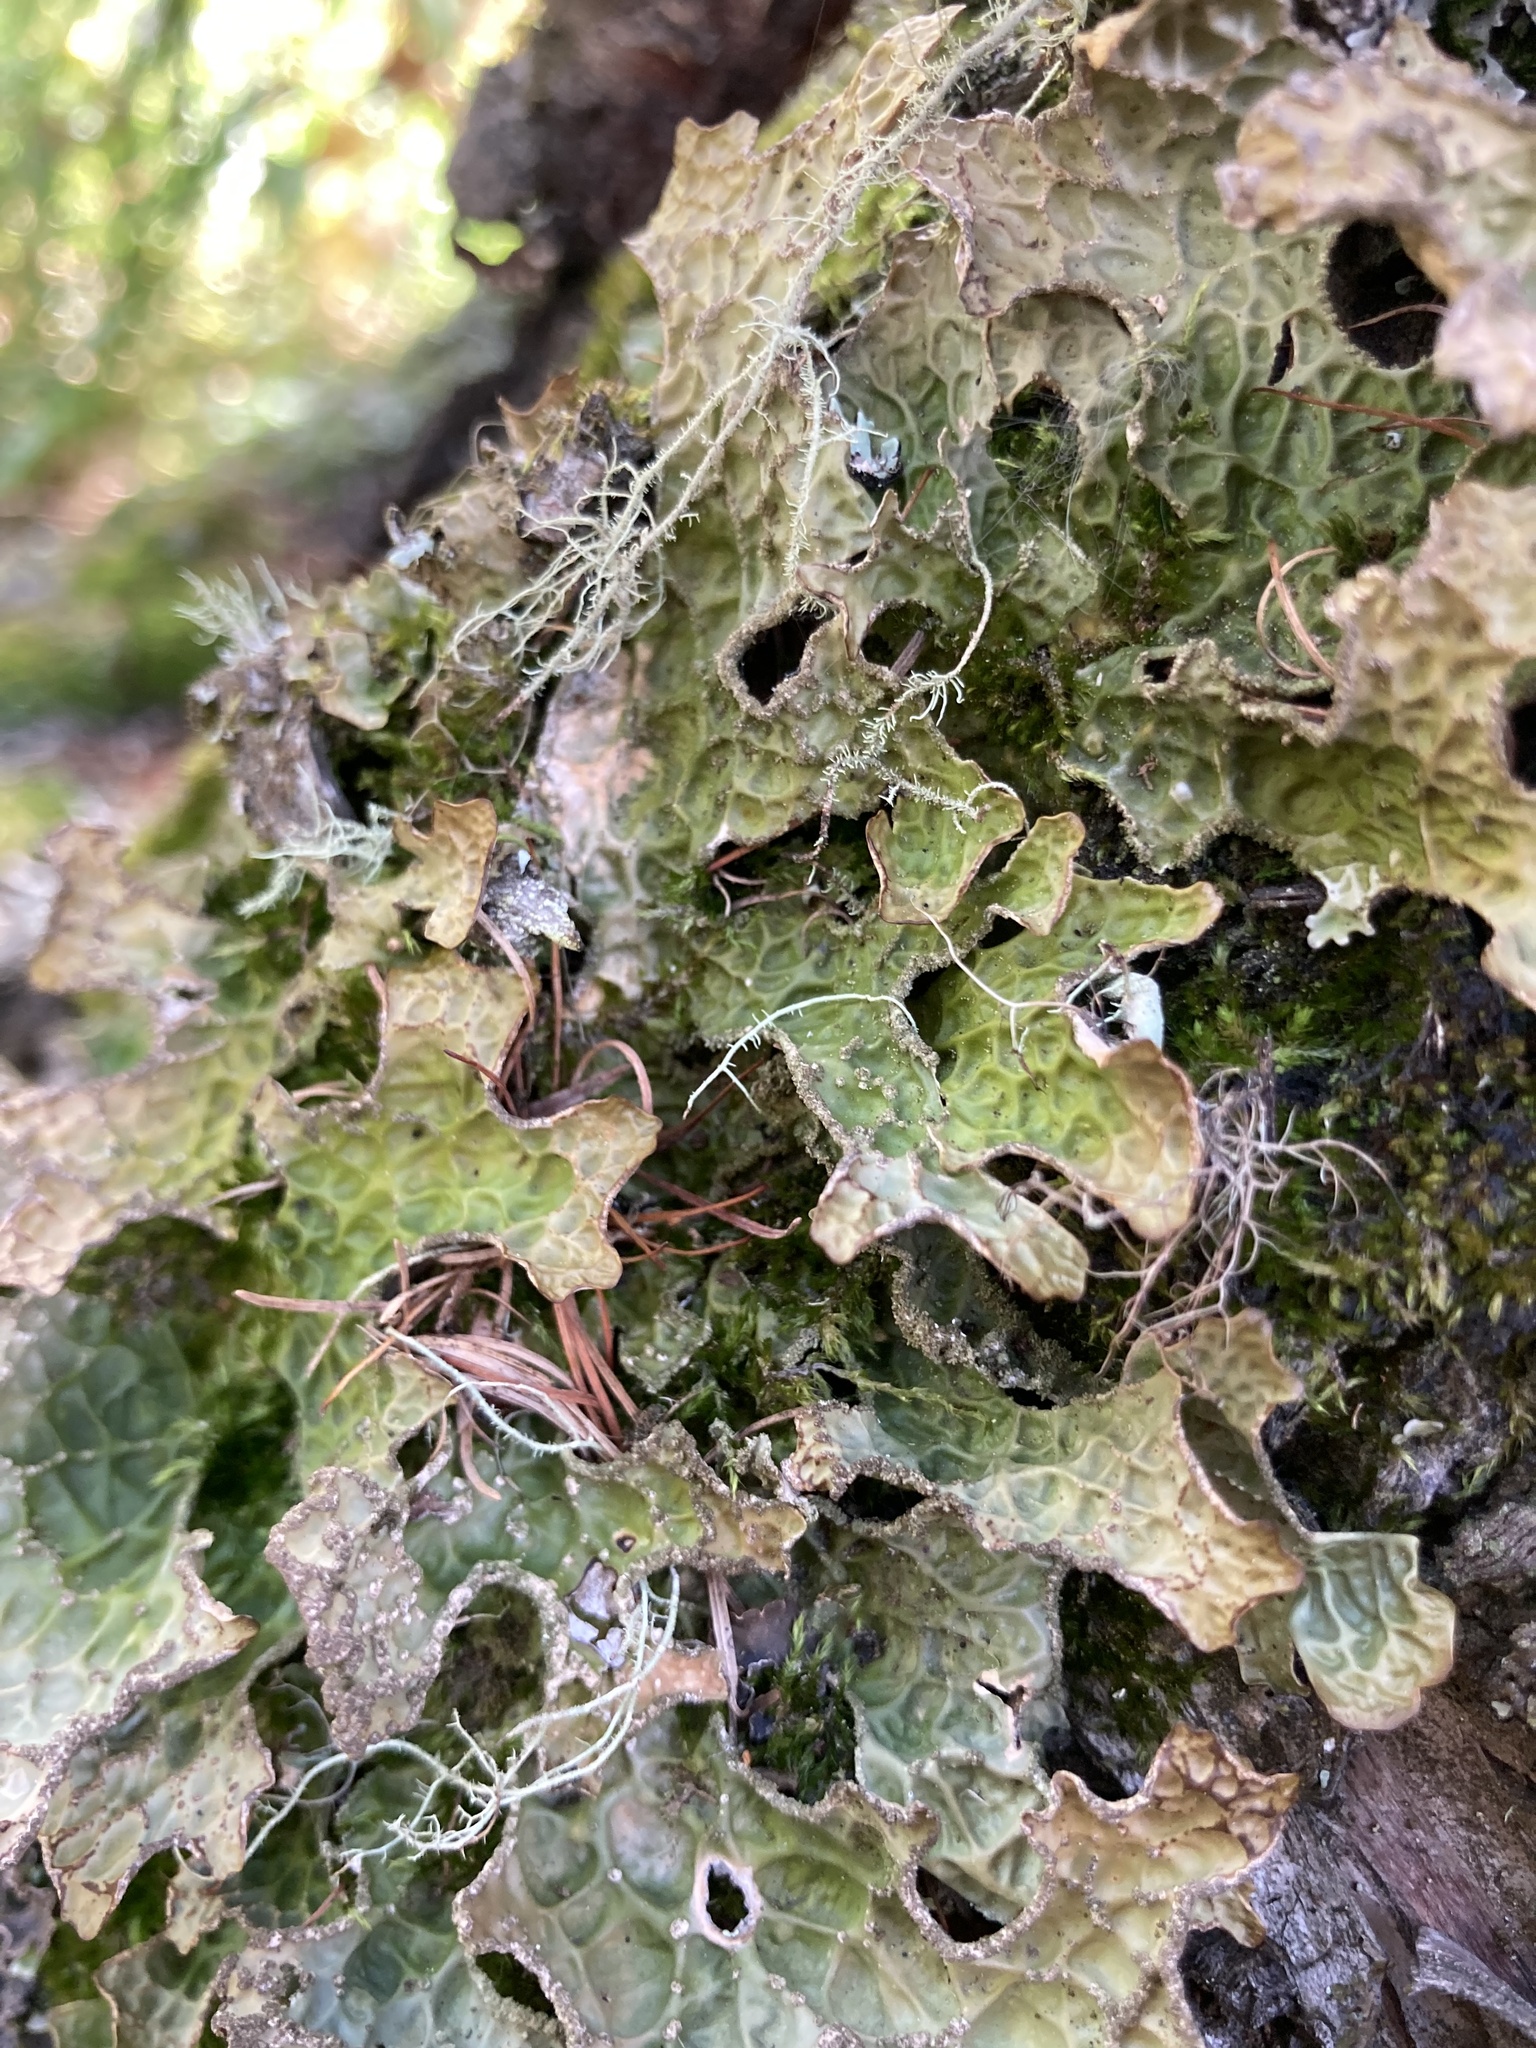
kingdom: Fungi
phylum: Ascomycota
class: Lecanoromycetes
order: Peltigerales
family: Lobariaceae
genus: Lobaria
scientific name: Lobaria pulmonaria
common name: Lungwort
